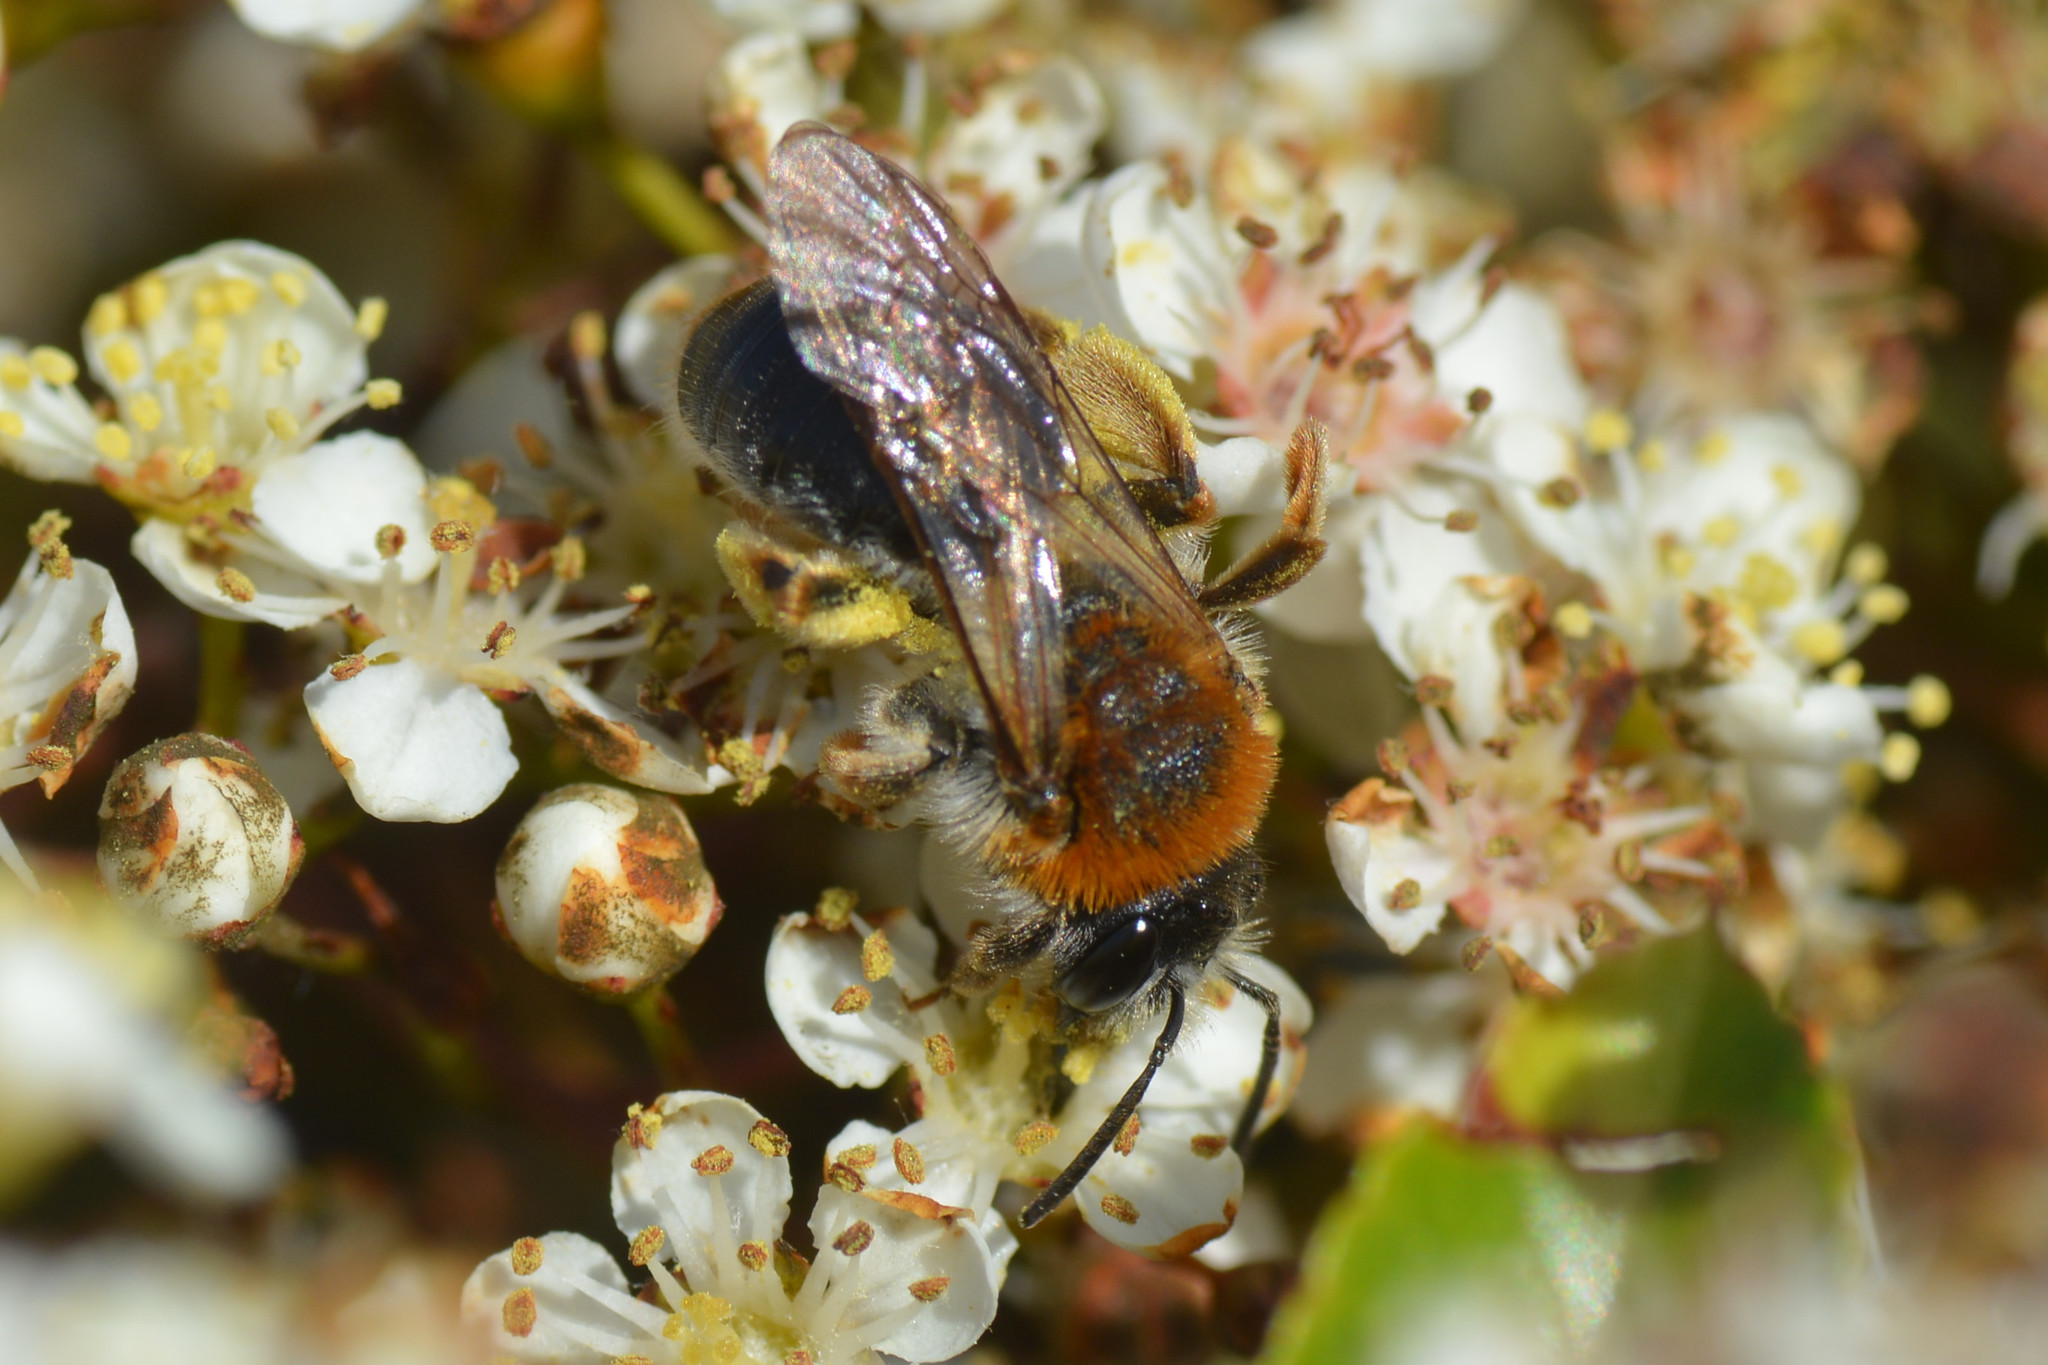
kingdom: Animalia
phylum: Arthropoda
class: Insecta
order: Hymenoptera
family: Andrenidae
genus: Andrena
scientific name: Andrena haemorrhoa
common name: Early mining bee
